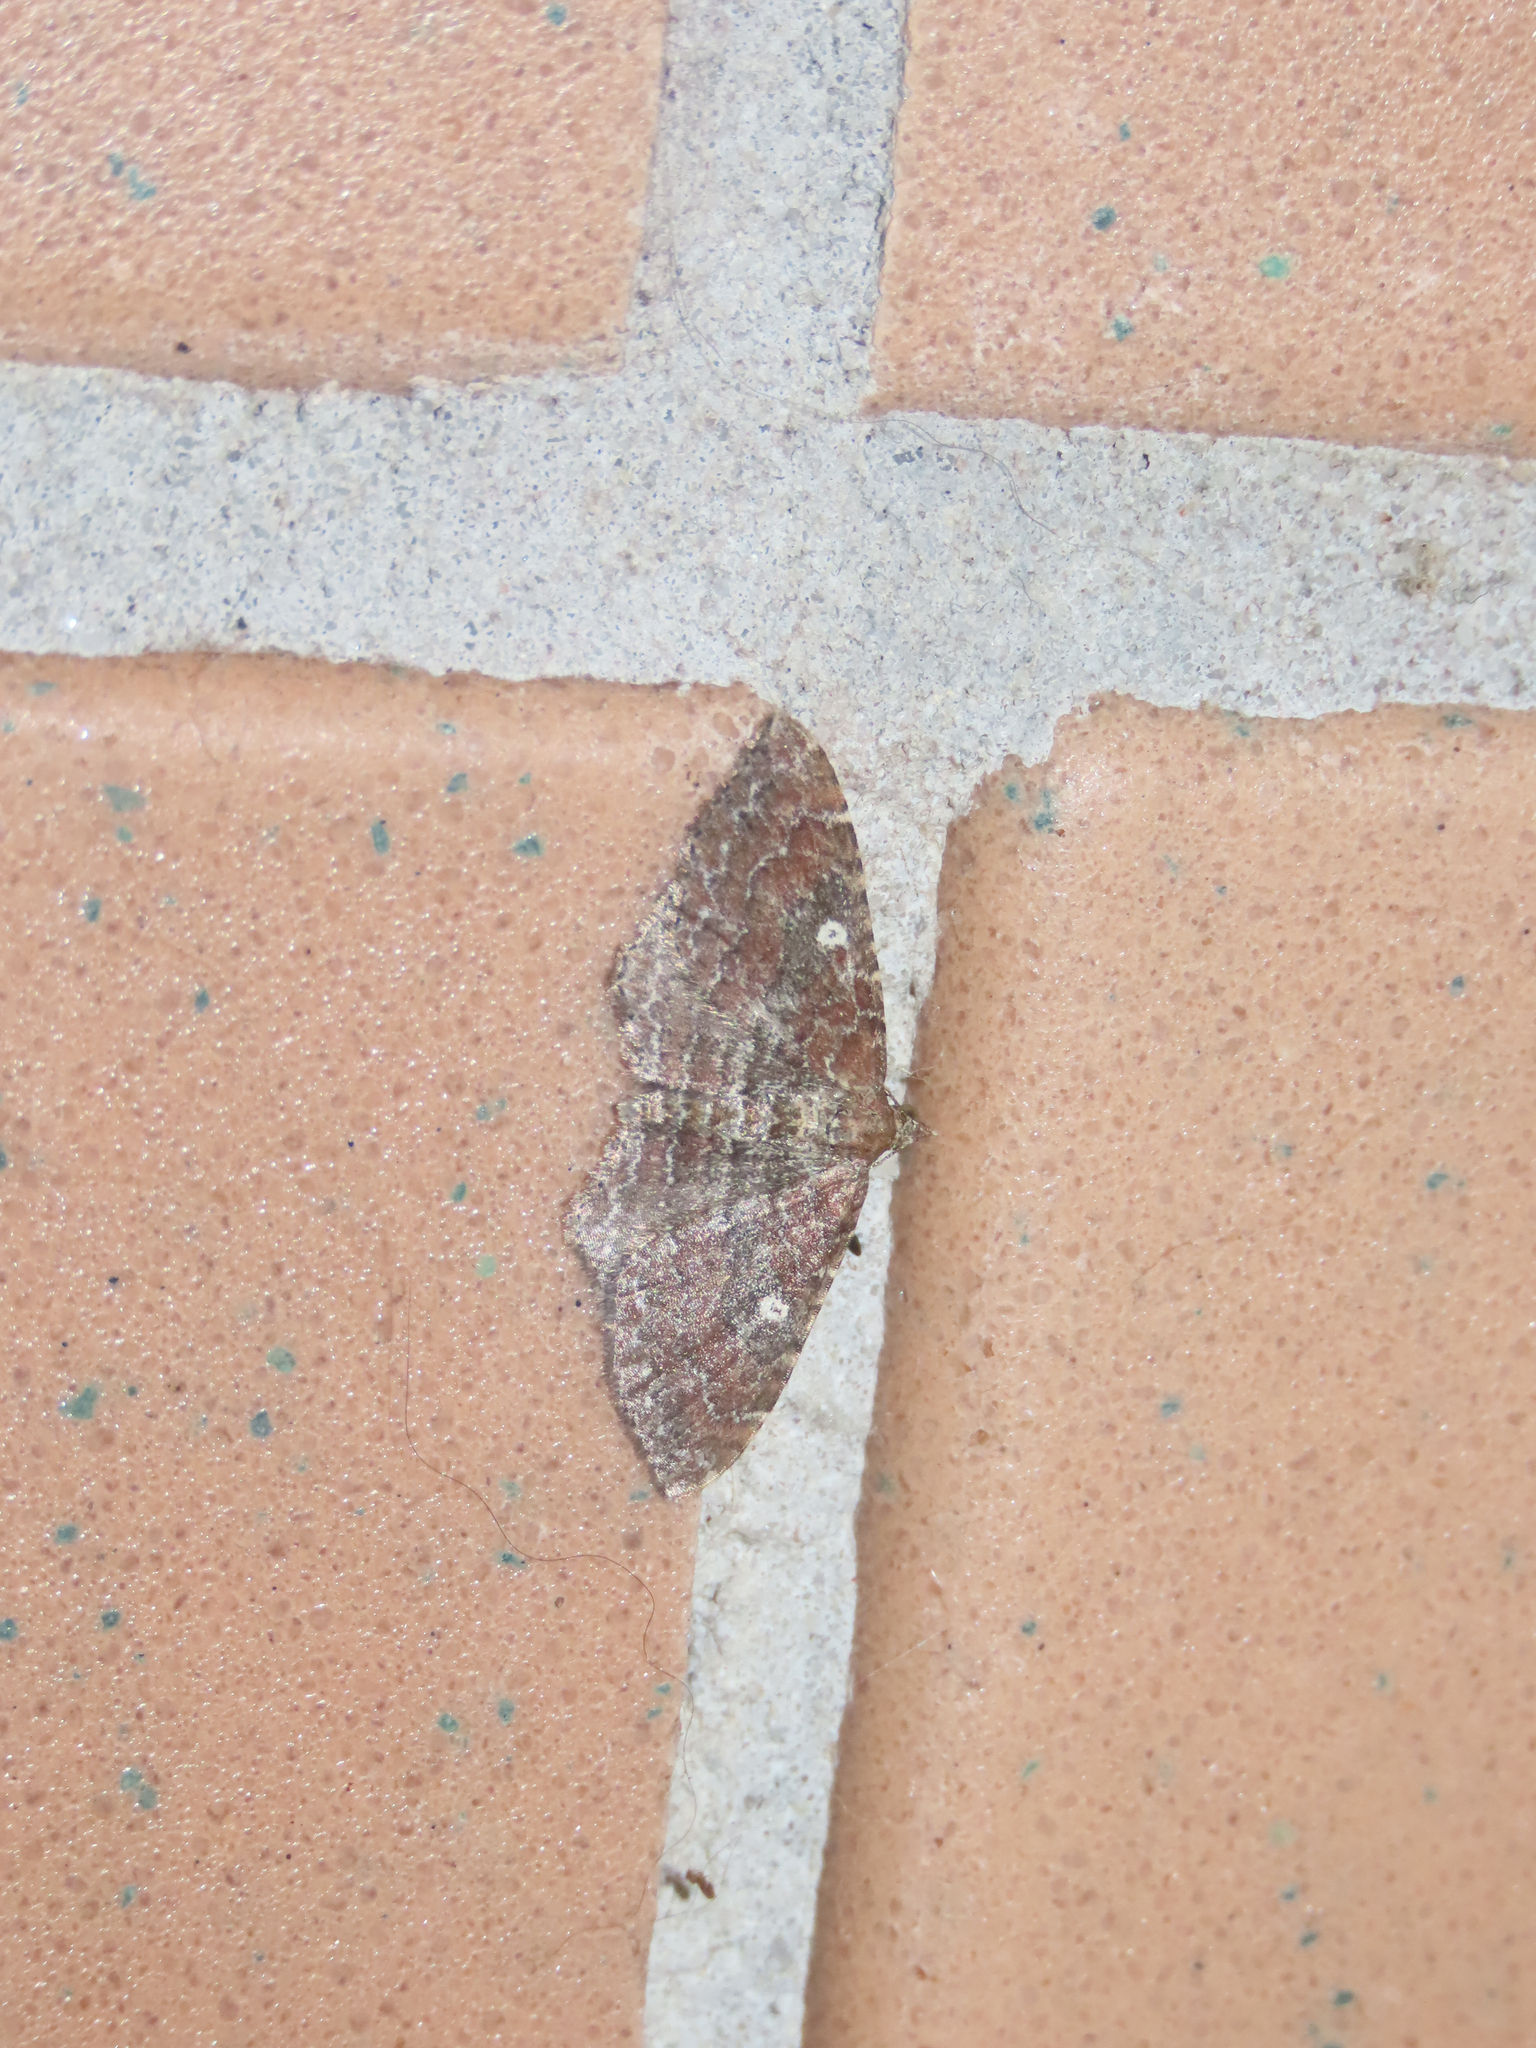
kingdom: Animalia
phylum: Arthropoda
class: Insecta
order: Lepidoptera
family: Geometridae
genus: Orthonama
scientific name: Orthonama obstipata
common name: The gem
